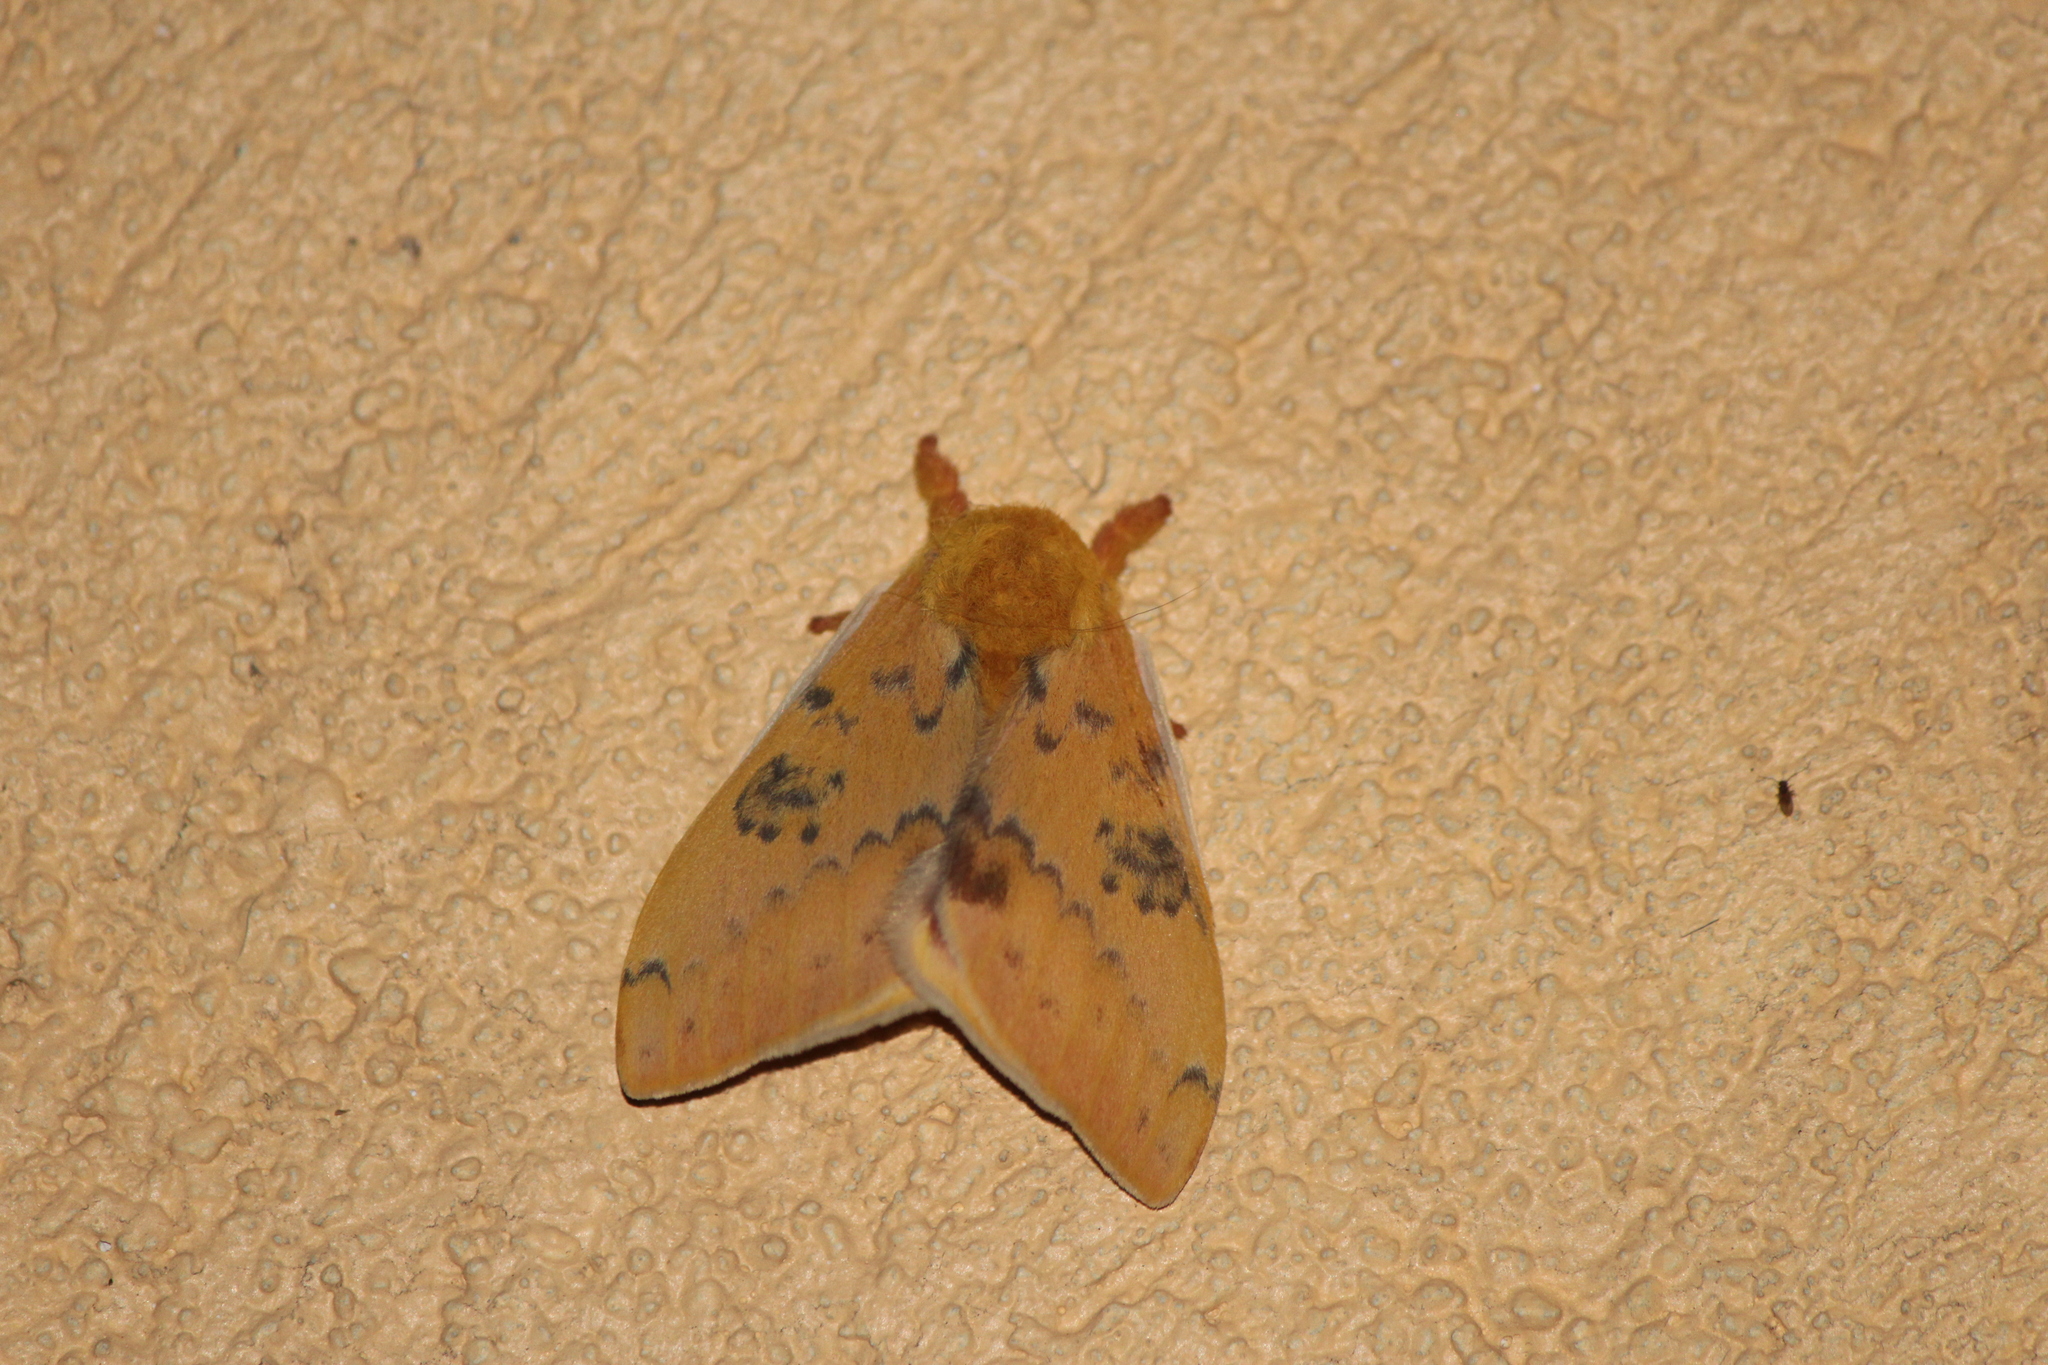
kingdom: Animalia
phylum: Arthropoda
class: Insecta
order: Lepidoptera
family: Saturniidae
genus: Automeris
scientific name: Automeris io
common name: Io moth
